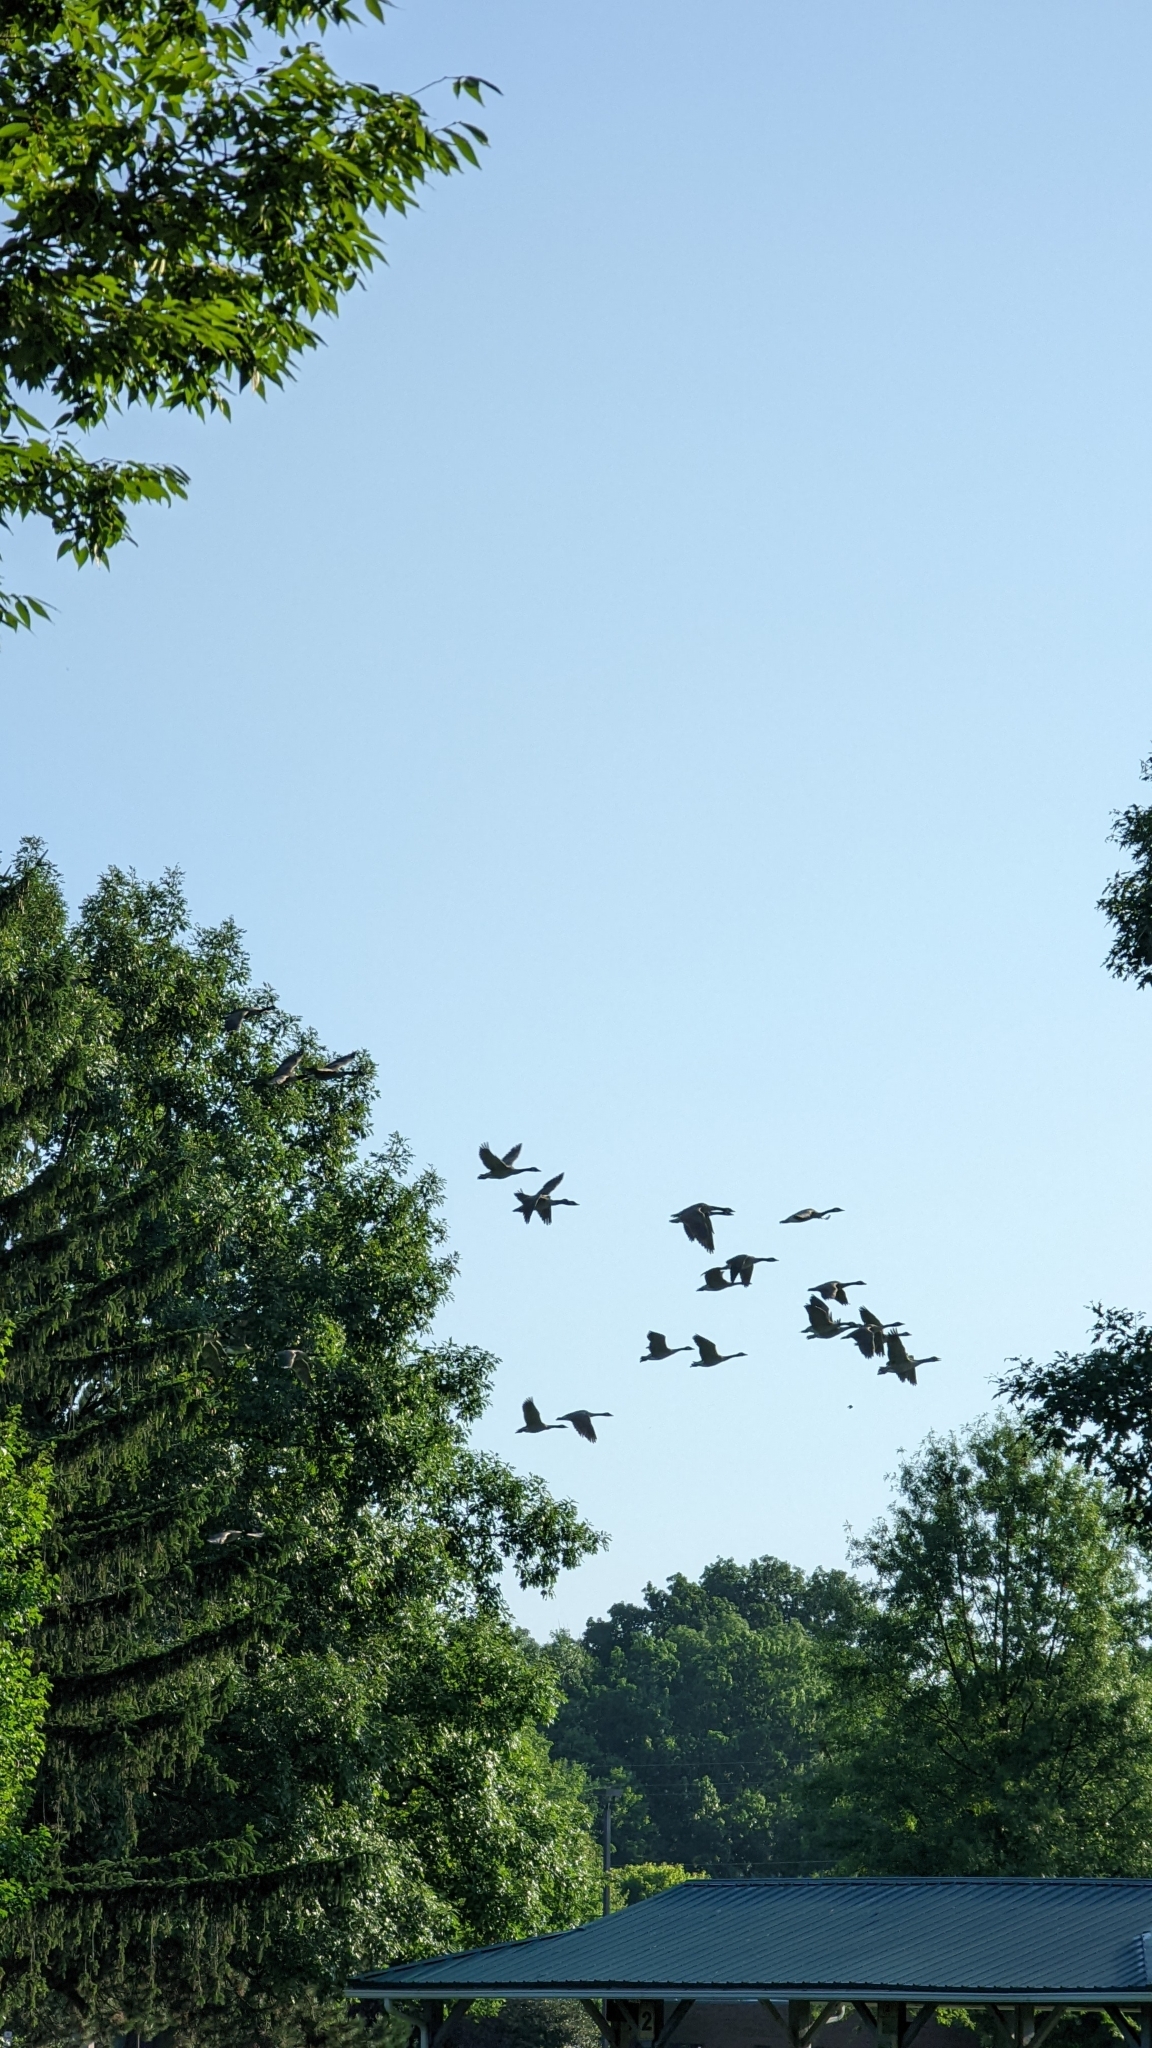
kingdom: Animalia
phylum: Chordata
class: Aves
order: Anseriformes
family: Anatidae
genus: Branta
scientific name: Branta canadensis
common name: Canada goose
